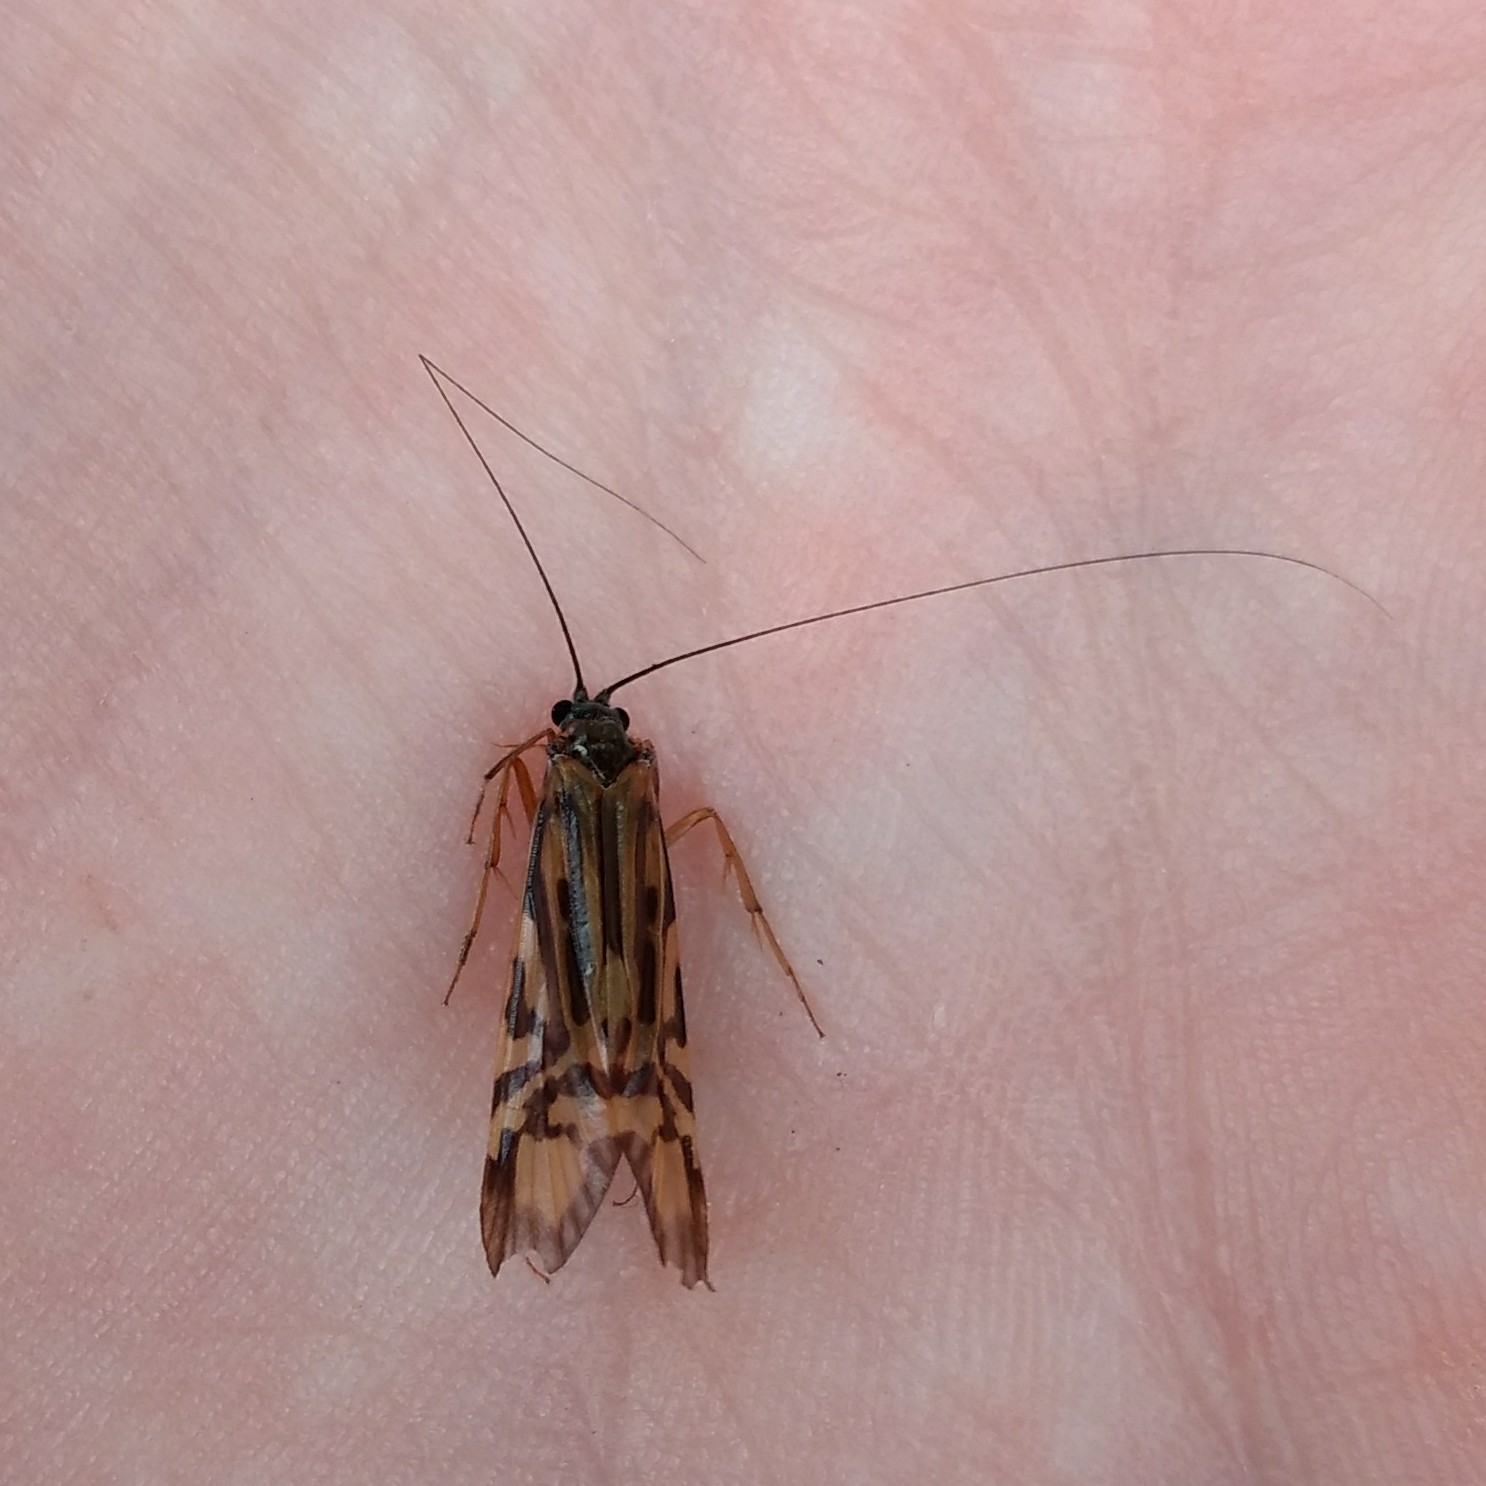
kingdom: Animalia
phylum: Arthropoda
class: Insecta
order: Trichoptera
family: Hydropsychidae
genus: Macrostemum
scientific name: Macrostemum zebratum
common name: Zebra caddisfly
